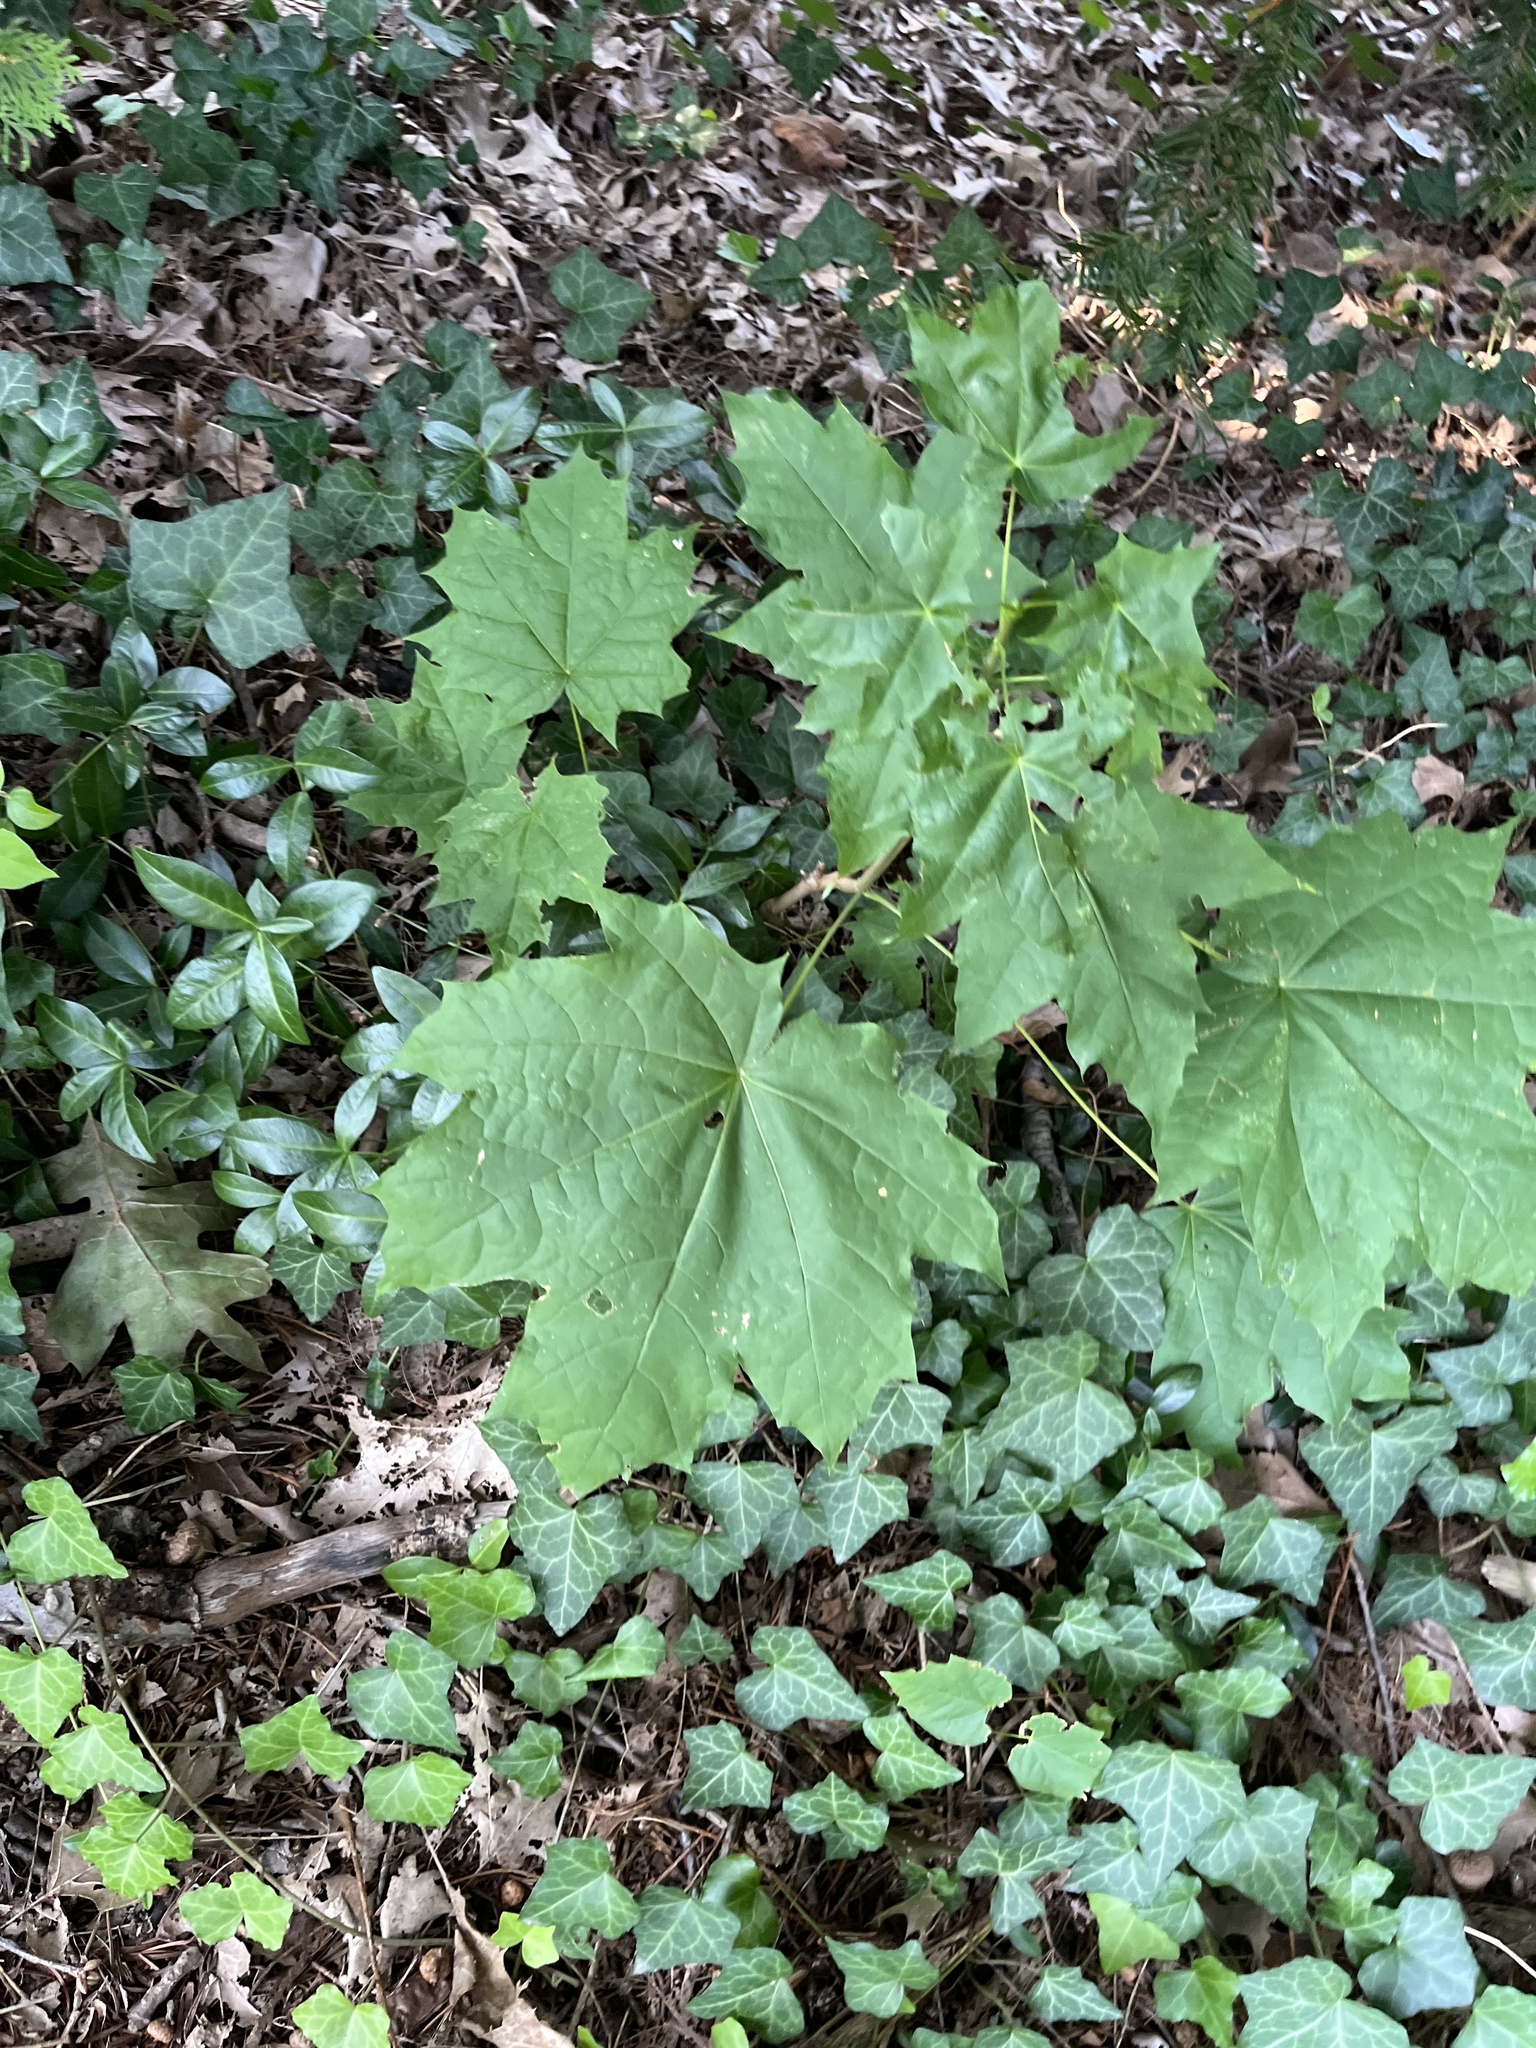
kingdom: Plantae
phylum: Tracheophyta
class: Magnoliopsida
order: Sapindales
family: Sapindaceae
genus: Acer
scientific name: Acer platanoides
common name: Norway maple
